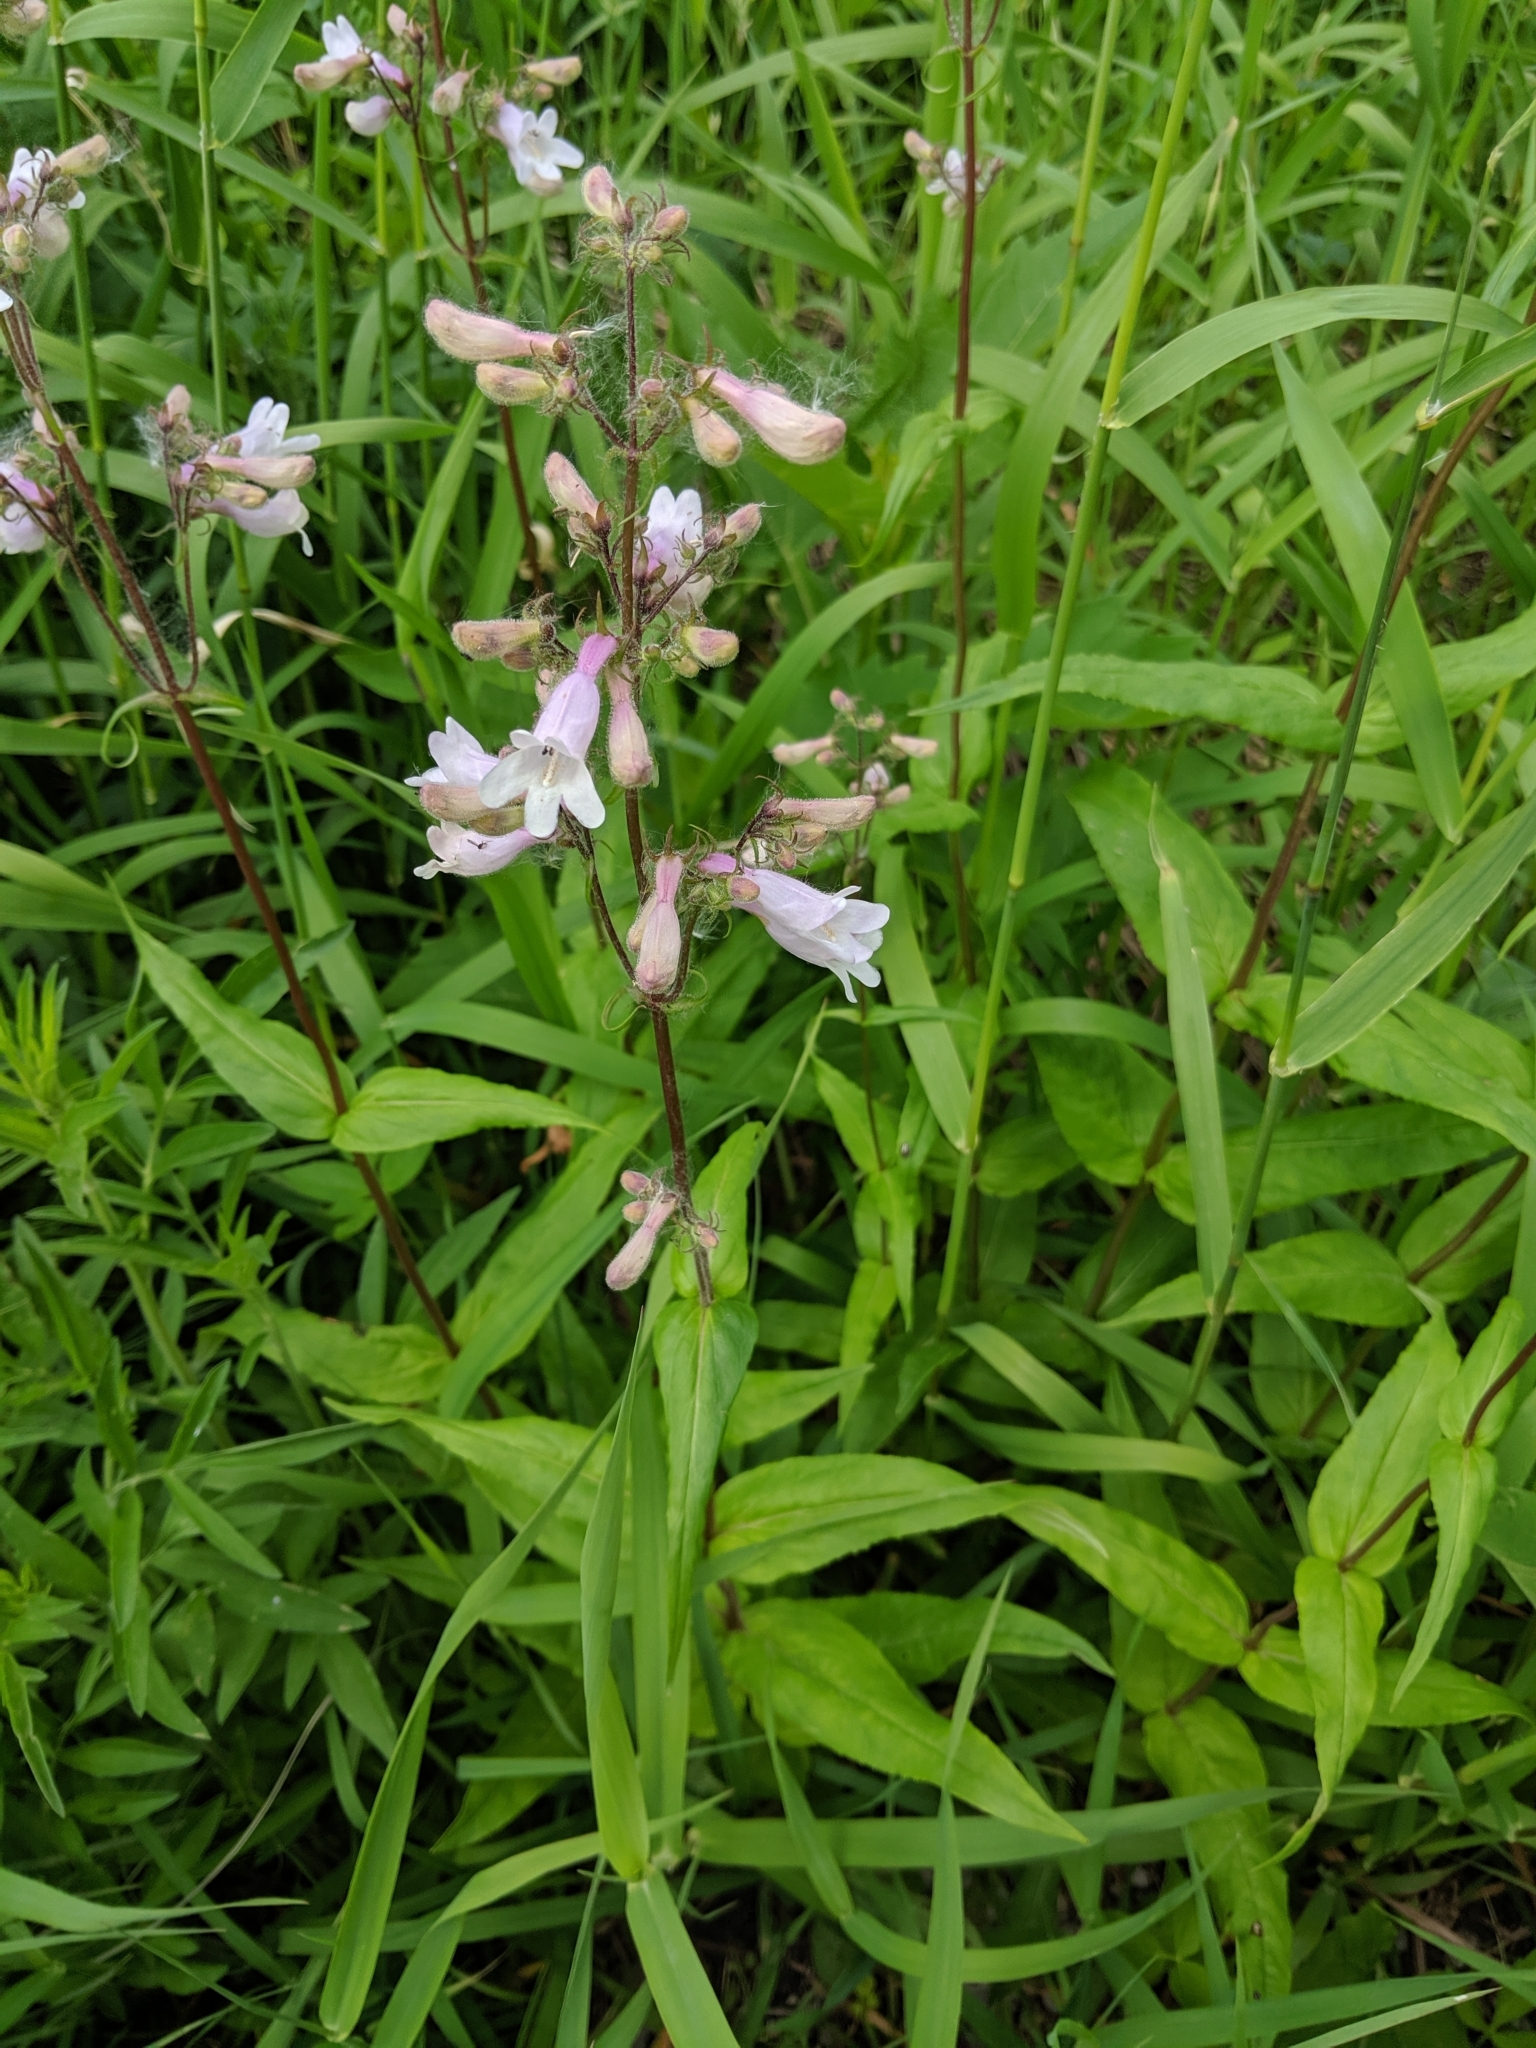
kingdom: Plantae
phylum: Tracheophyta
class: Magnoliopsida
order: Lamiales
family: Plantaginaceae
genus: Penstemon
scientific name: Penstemon digitalis
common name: Foxglove beardtongue
